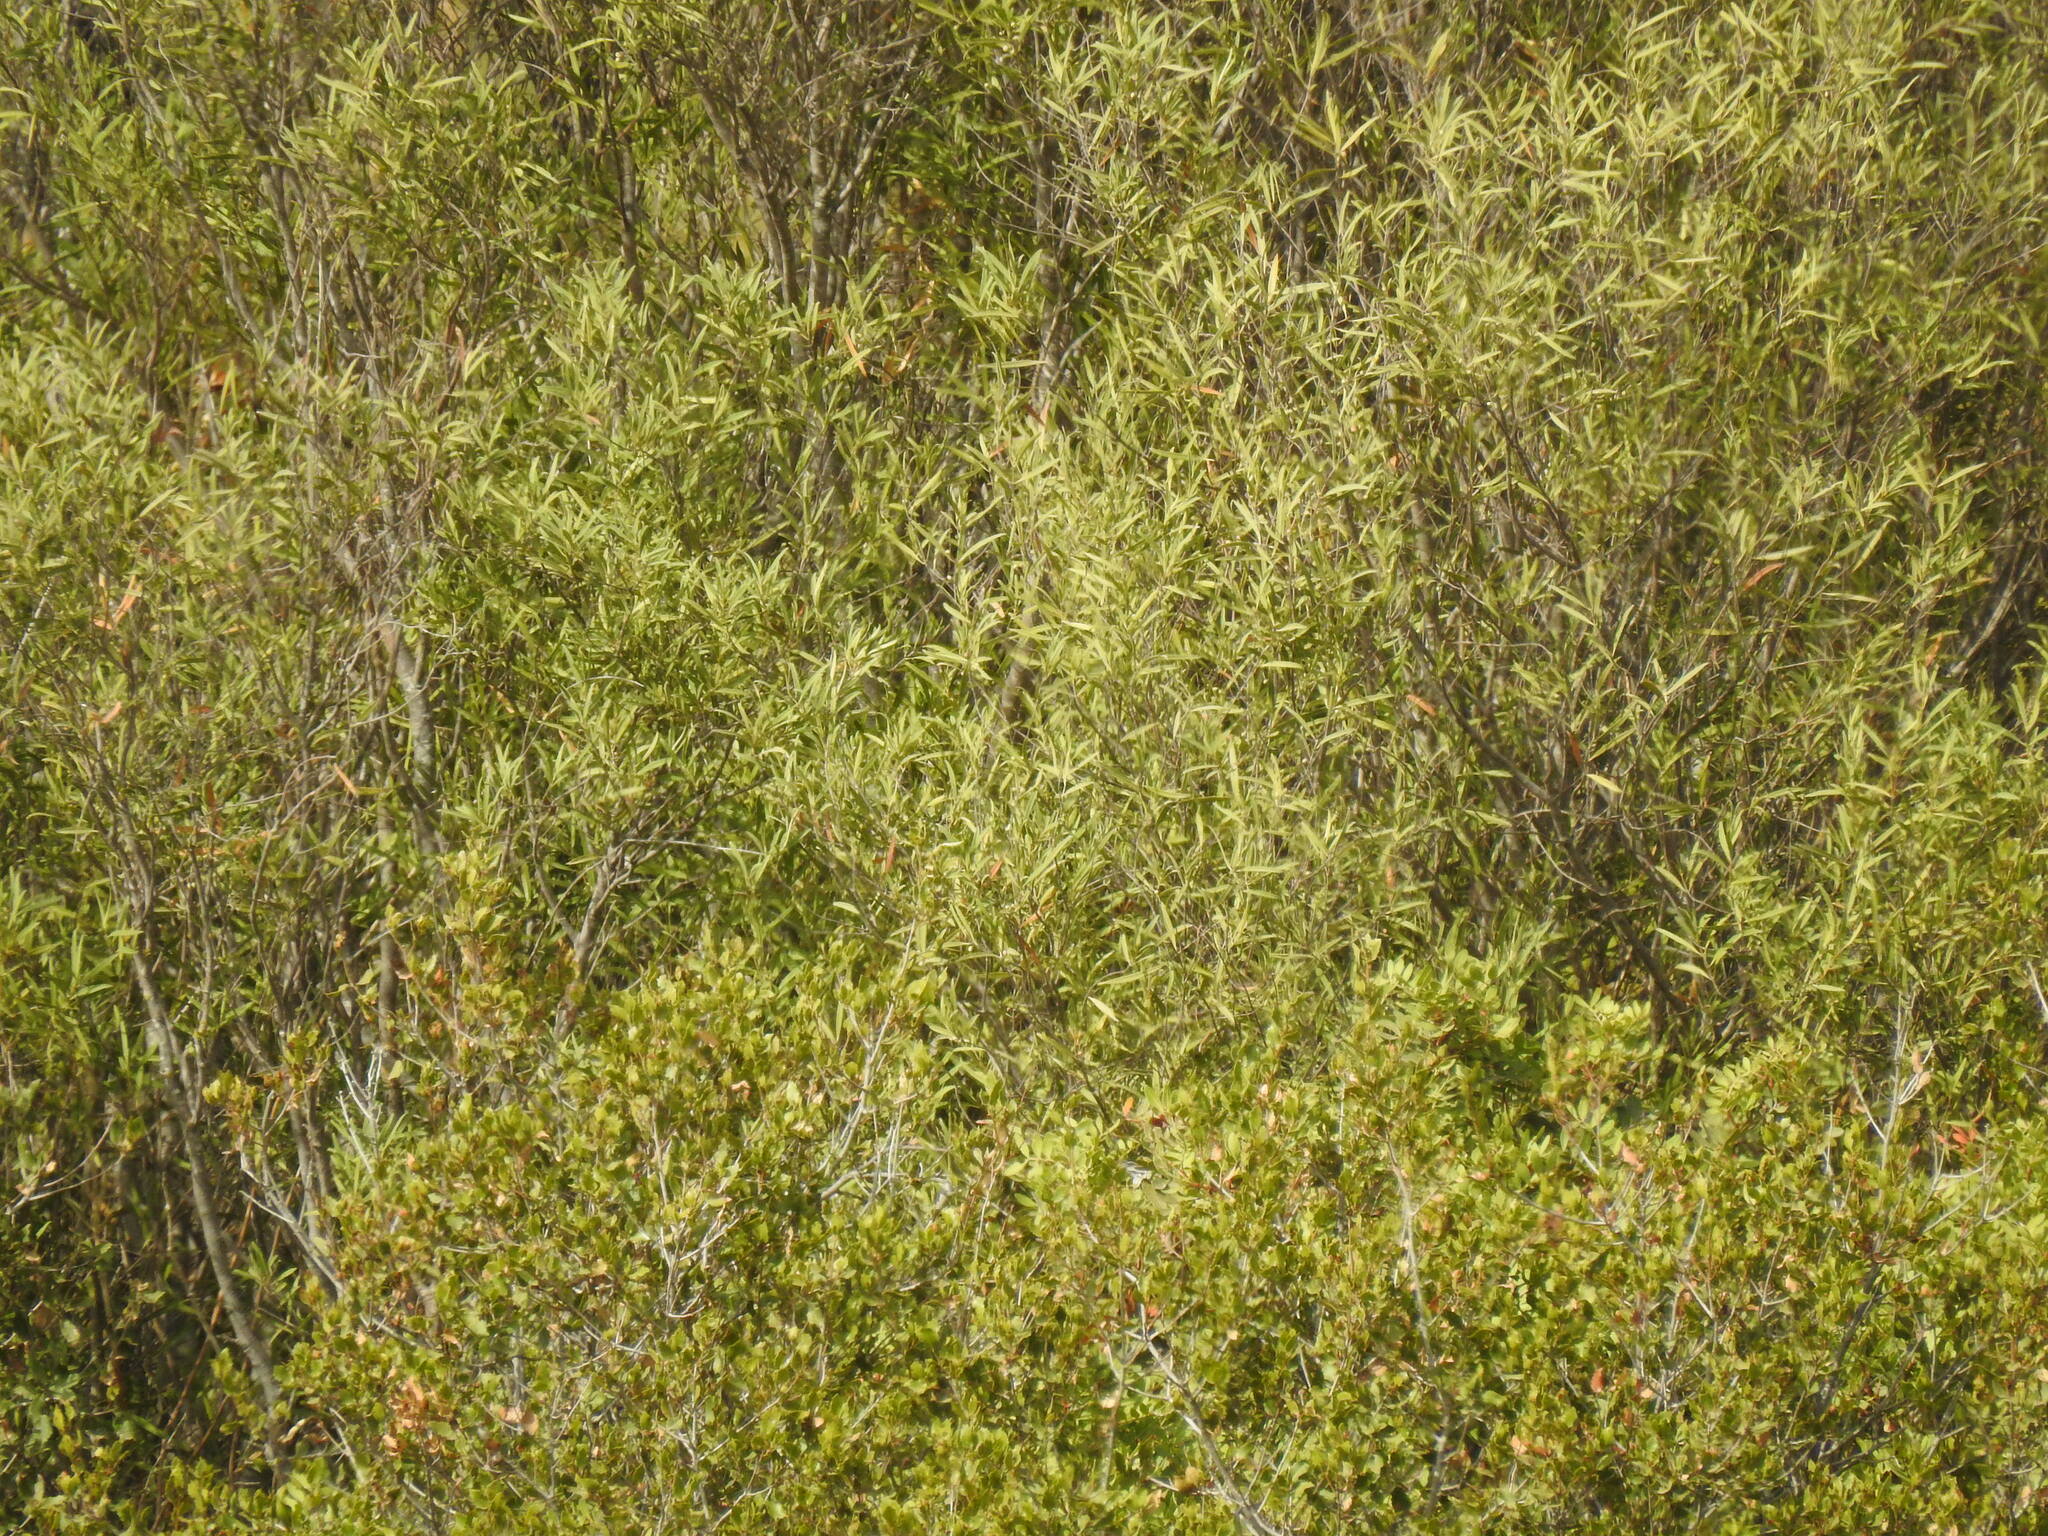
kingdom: Plantae
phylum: Tracheophyta
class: Magnoliopsida
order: Lamiales
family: Oleaceae
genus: Phillyrea
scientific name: Phillyrea angustifolia
